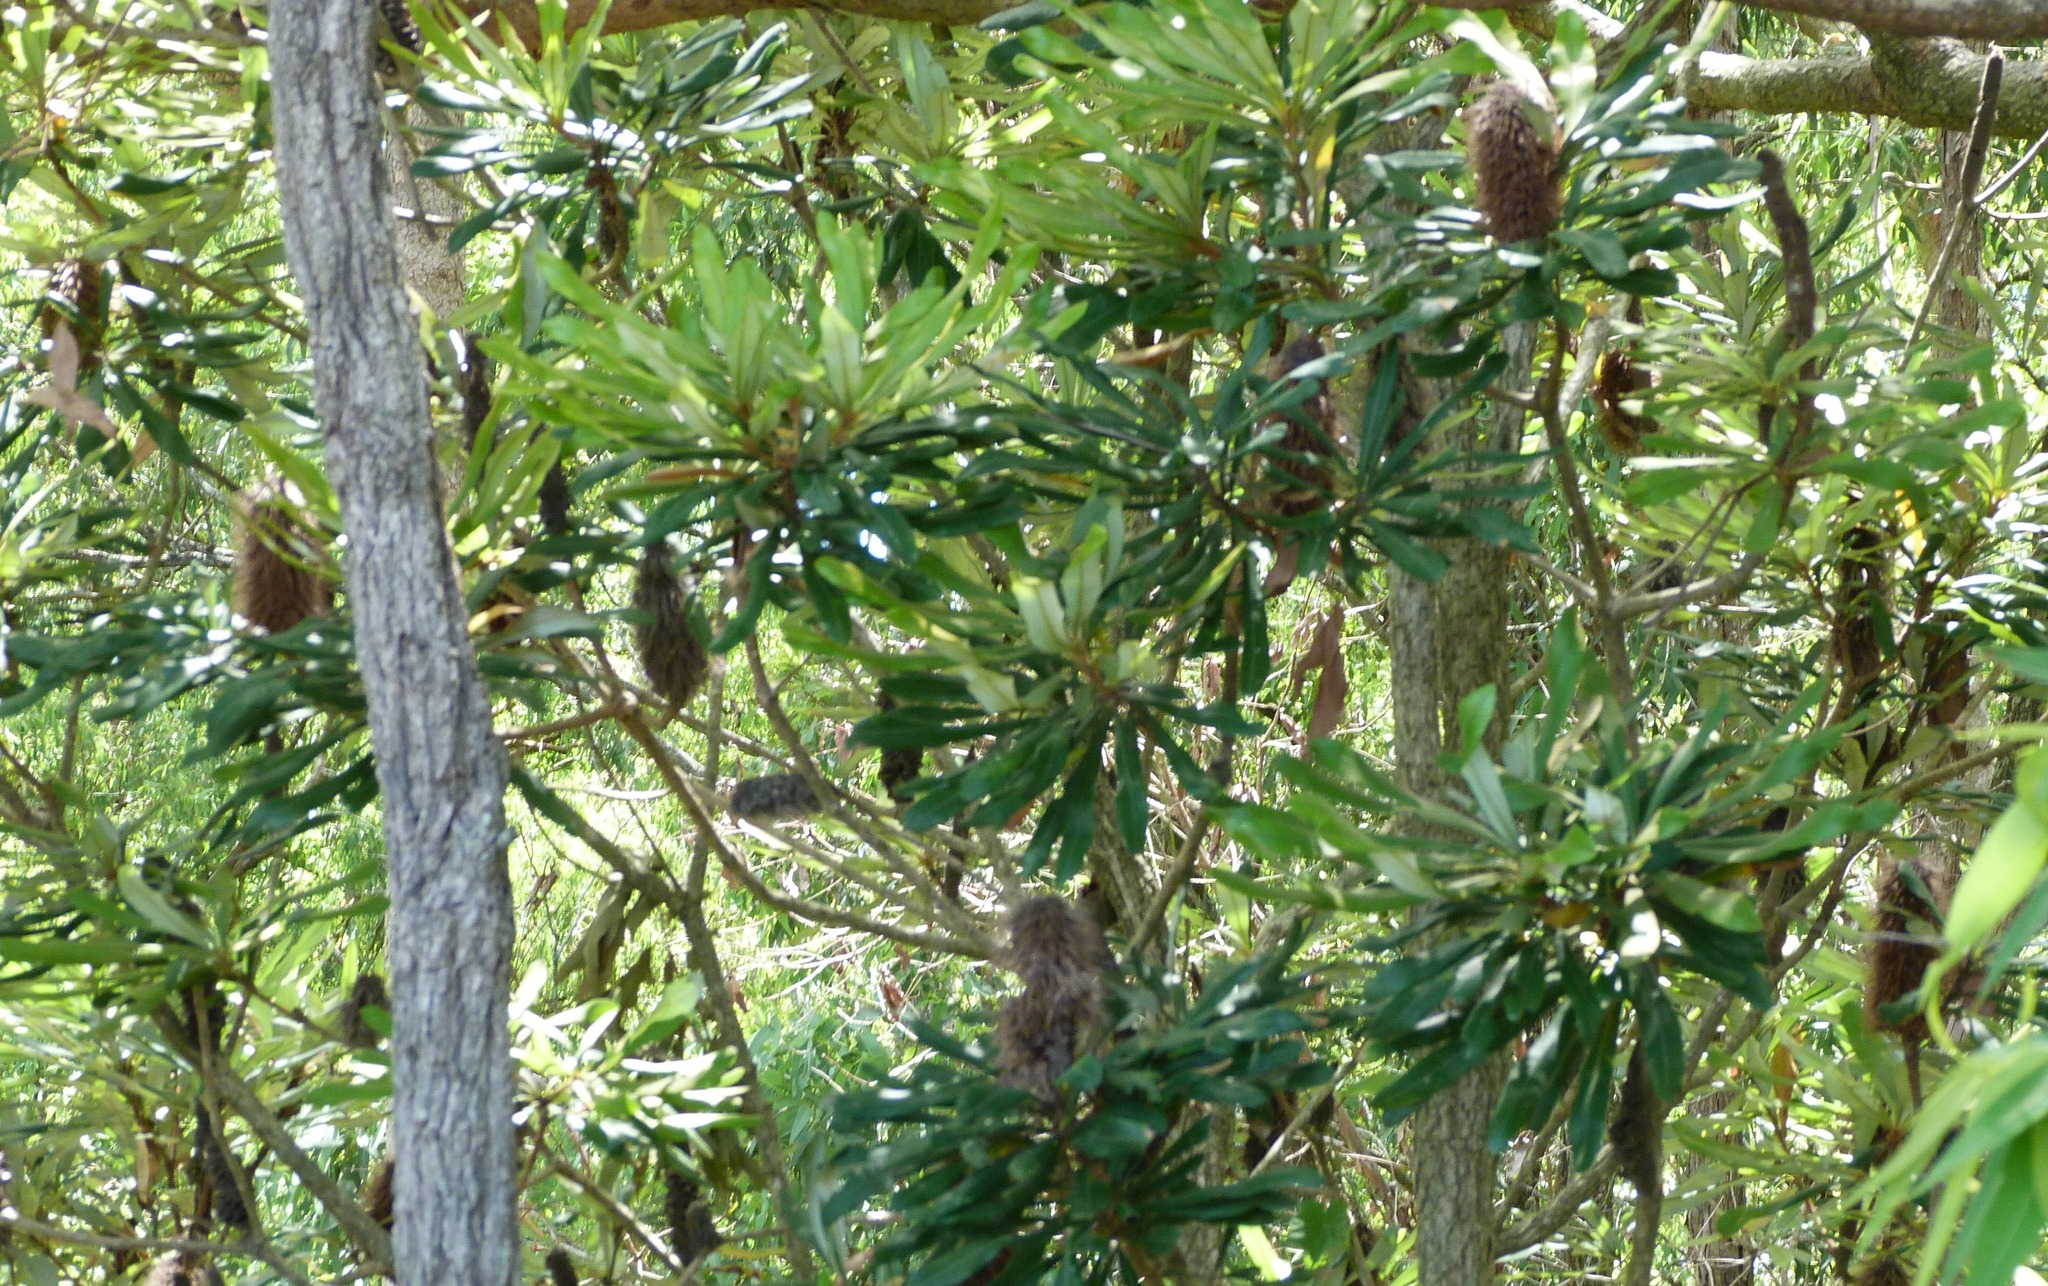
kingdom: Plantae
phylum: Tracheophyta
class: Magnoliopsida
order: Proteales
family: Proteaceae
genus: Banksia
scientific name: Banksia integrifolia
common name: White-honeysuckle
